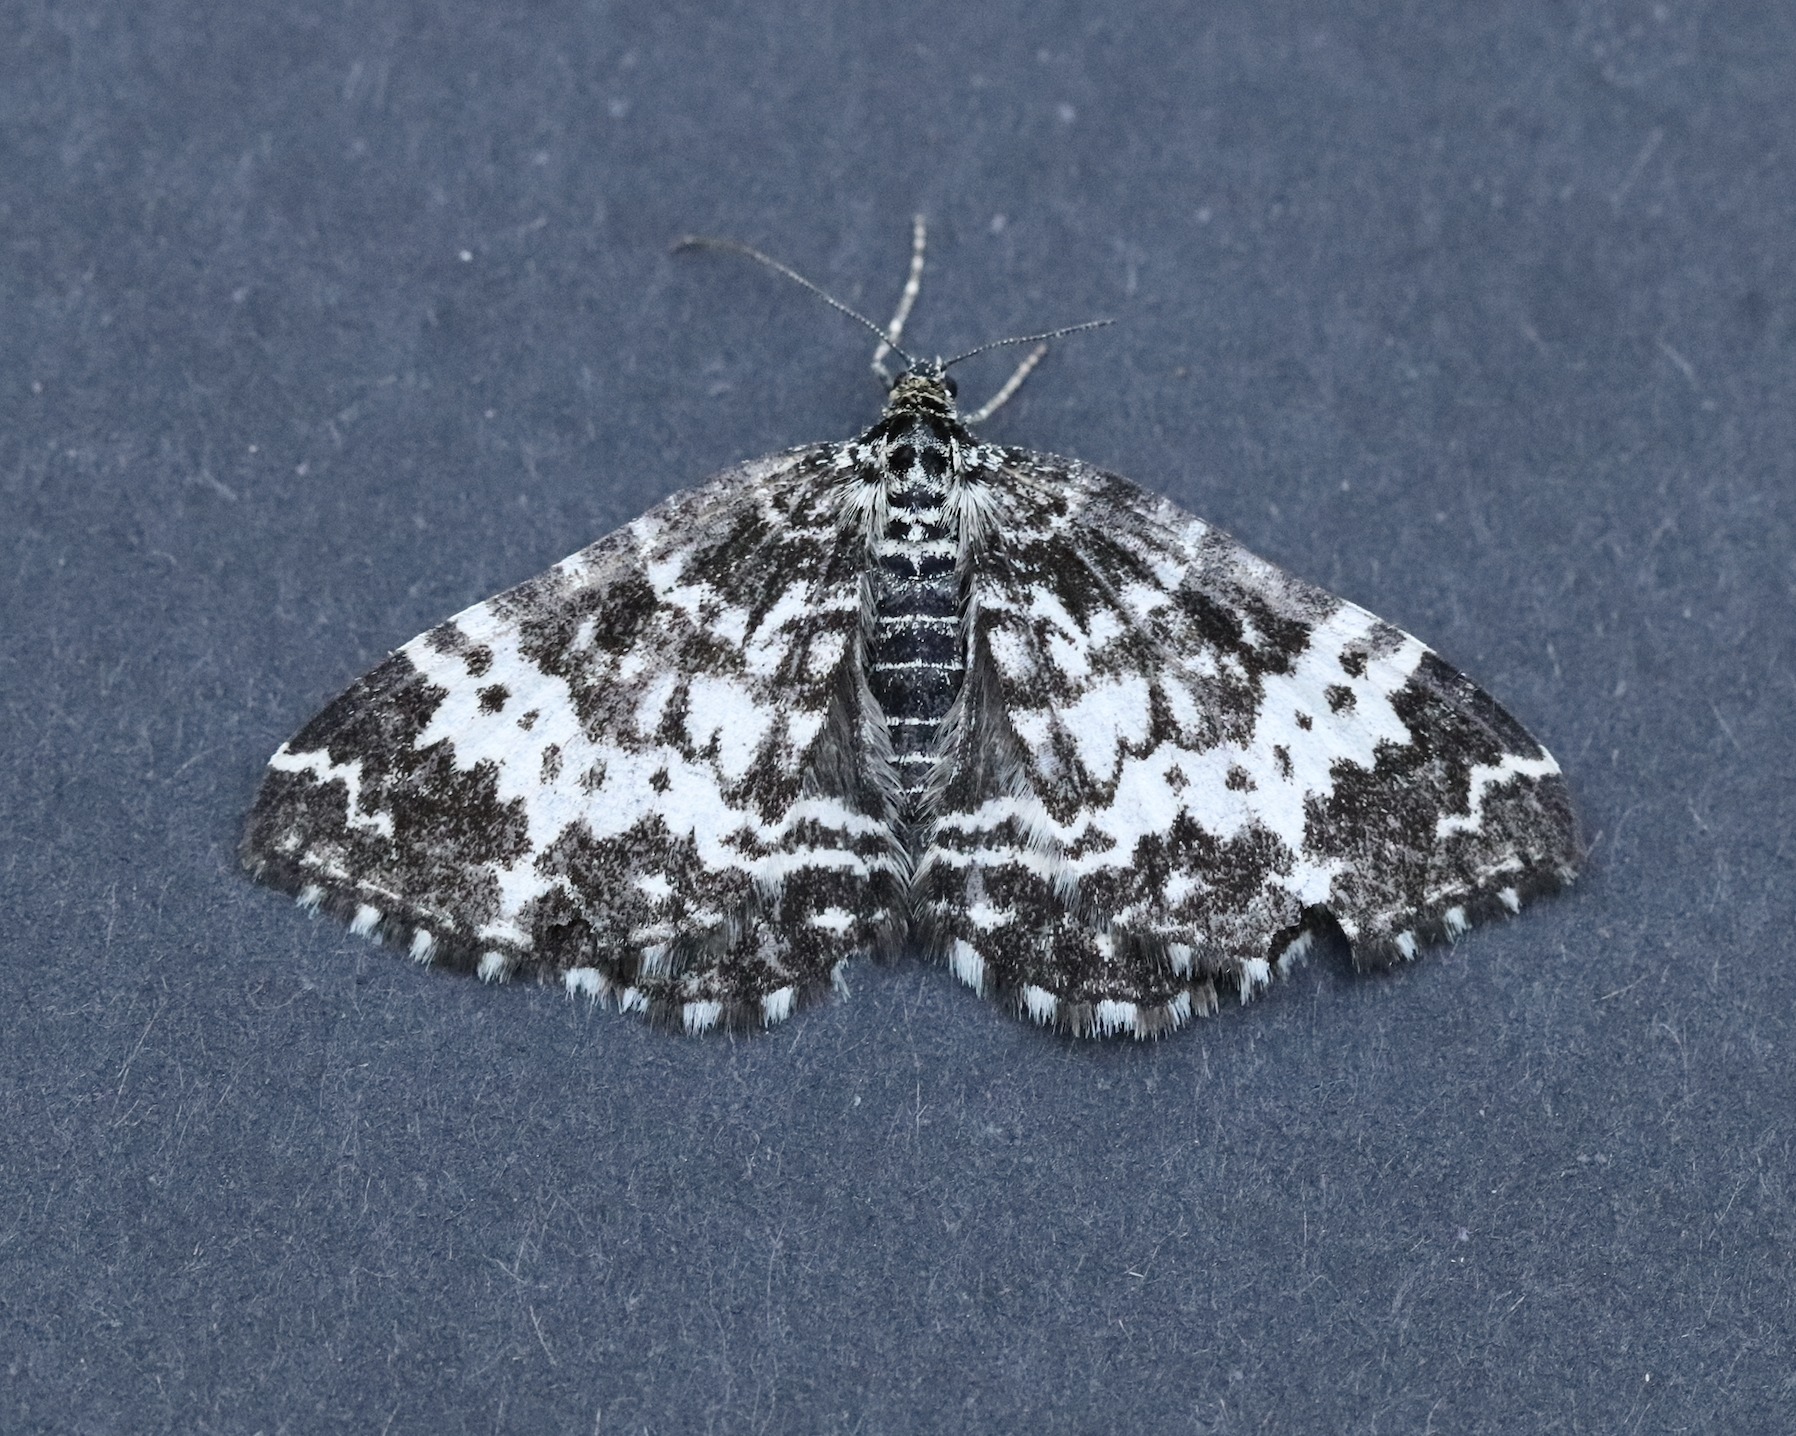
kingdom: Animalia
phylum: Arthropoda
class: Insecta
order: Lepidoptera
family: Geometridae
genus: Rheumaptera
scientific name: Rheumaptera hastata
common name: Argent & sable
